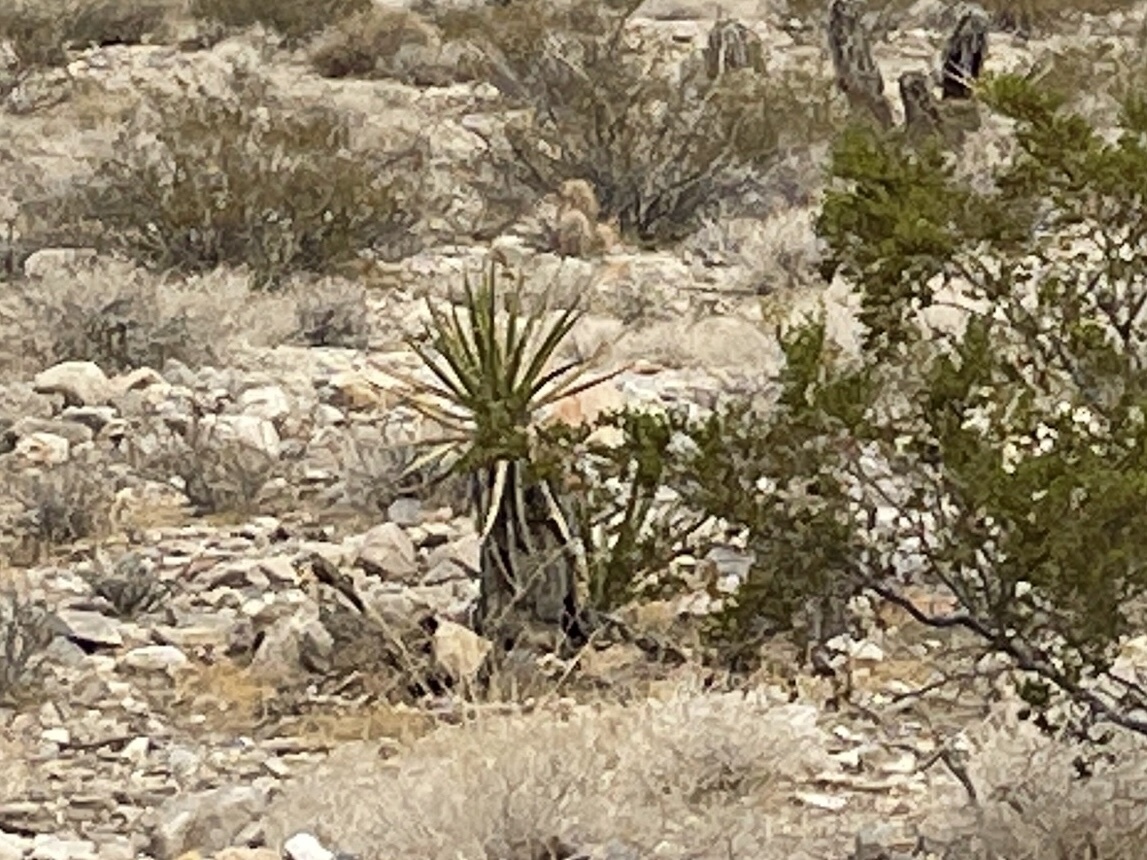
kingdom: Plantae
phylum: Tracheophyta
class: Liliopsida
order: Asparagales
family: Asparagaceae
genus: Yucca
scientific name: Yucca schidigera
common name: Mojave yucca
